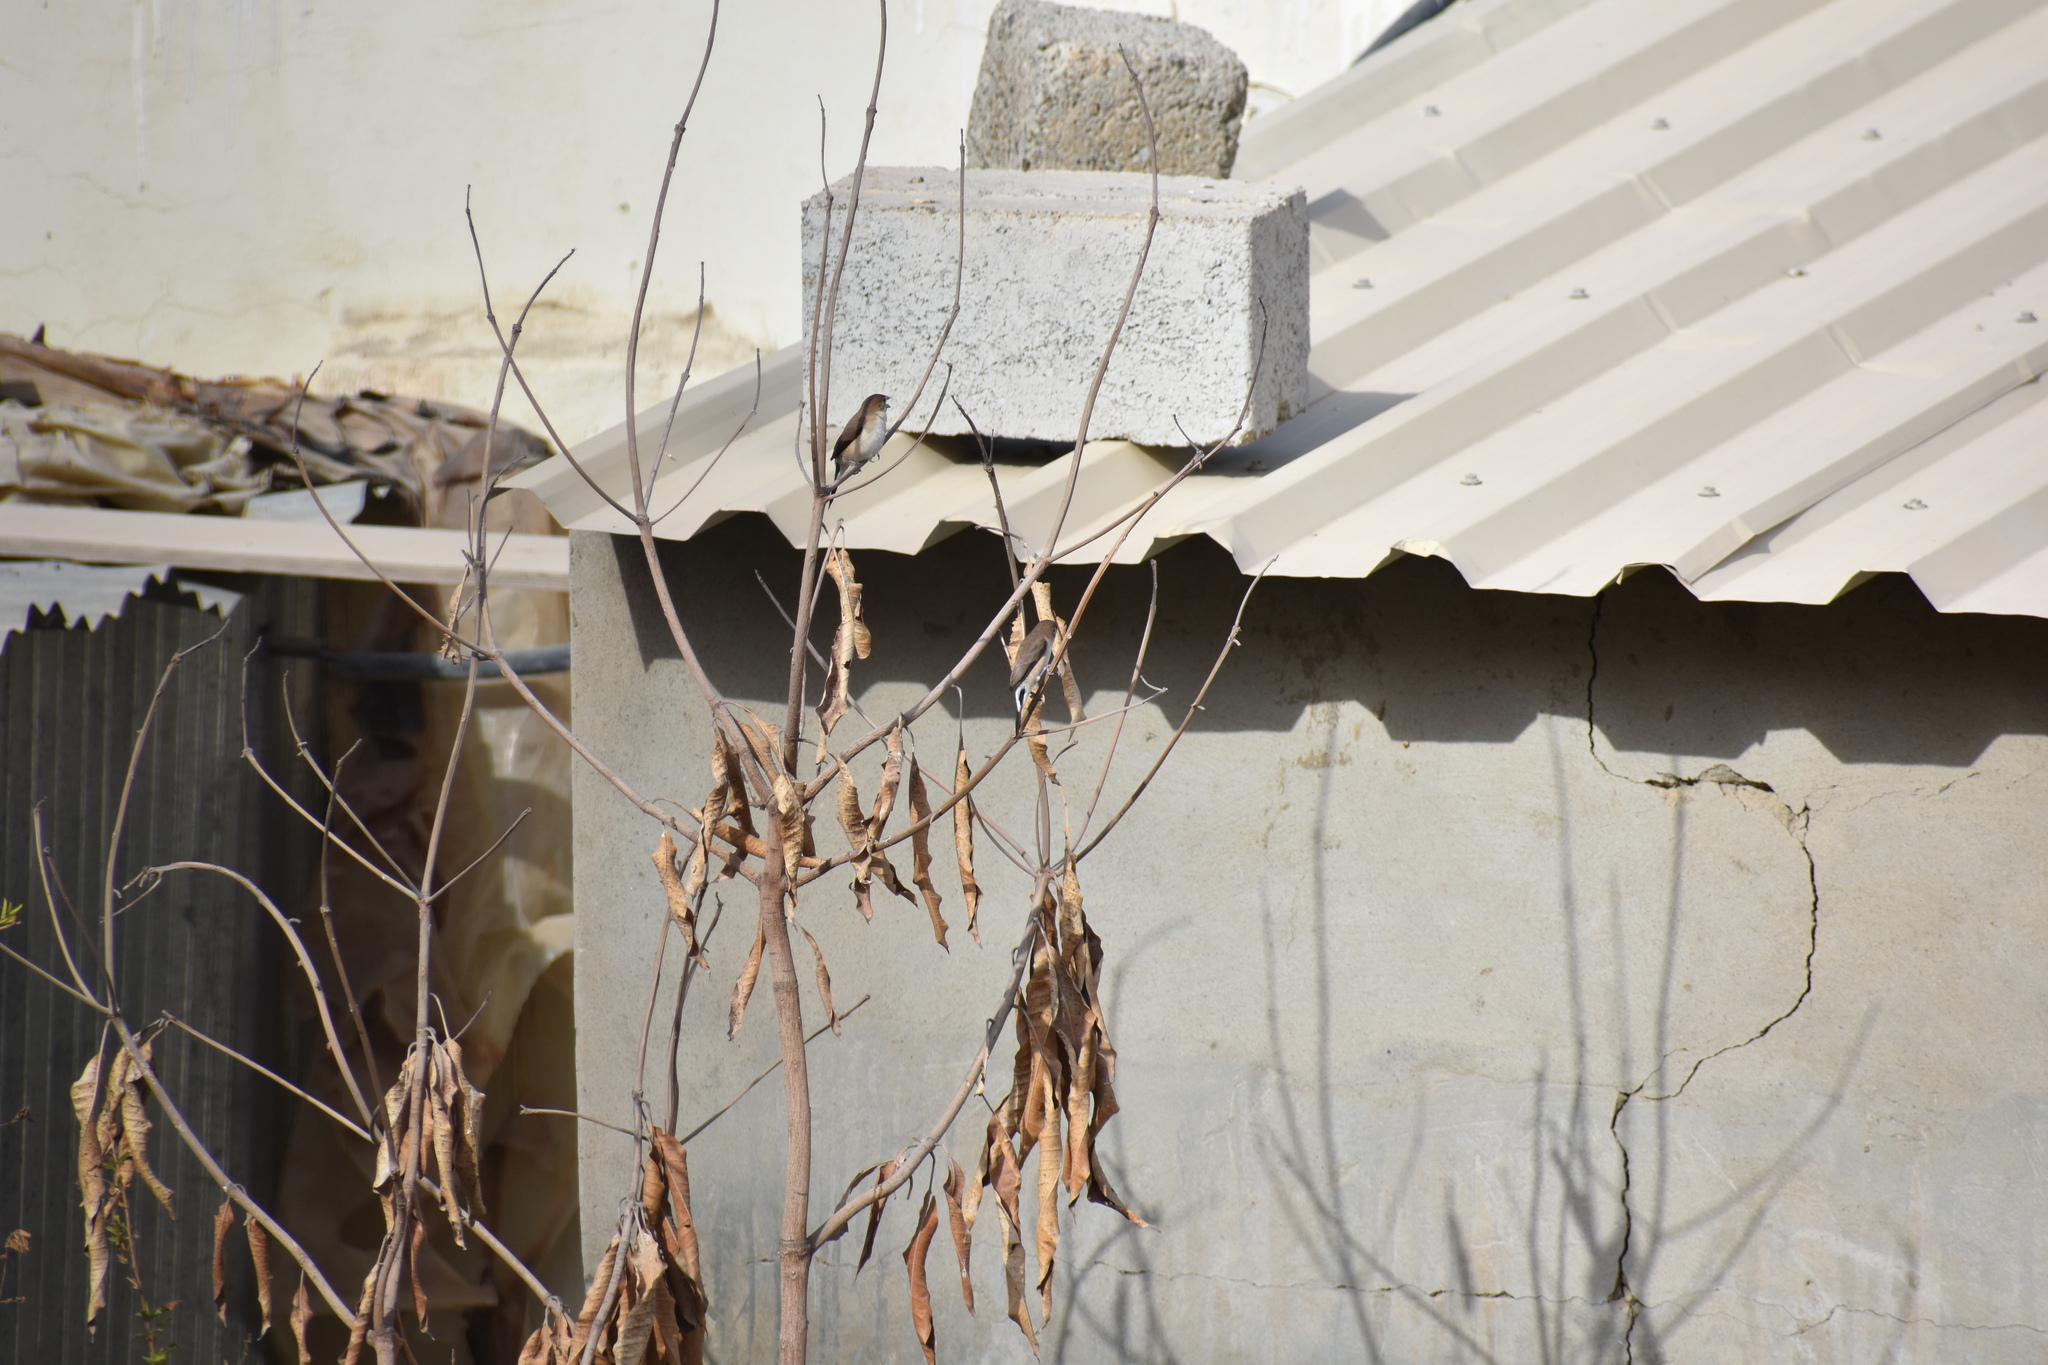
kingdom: Animalia
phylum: Chordata
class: Aves
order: Passeriformes
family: Estrildidae
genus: Euodice
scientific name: Euodice malabarica
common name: Indian silverbill
